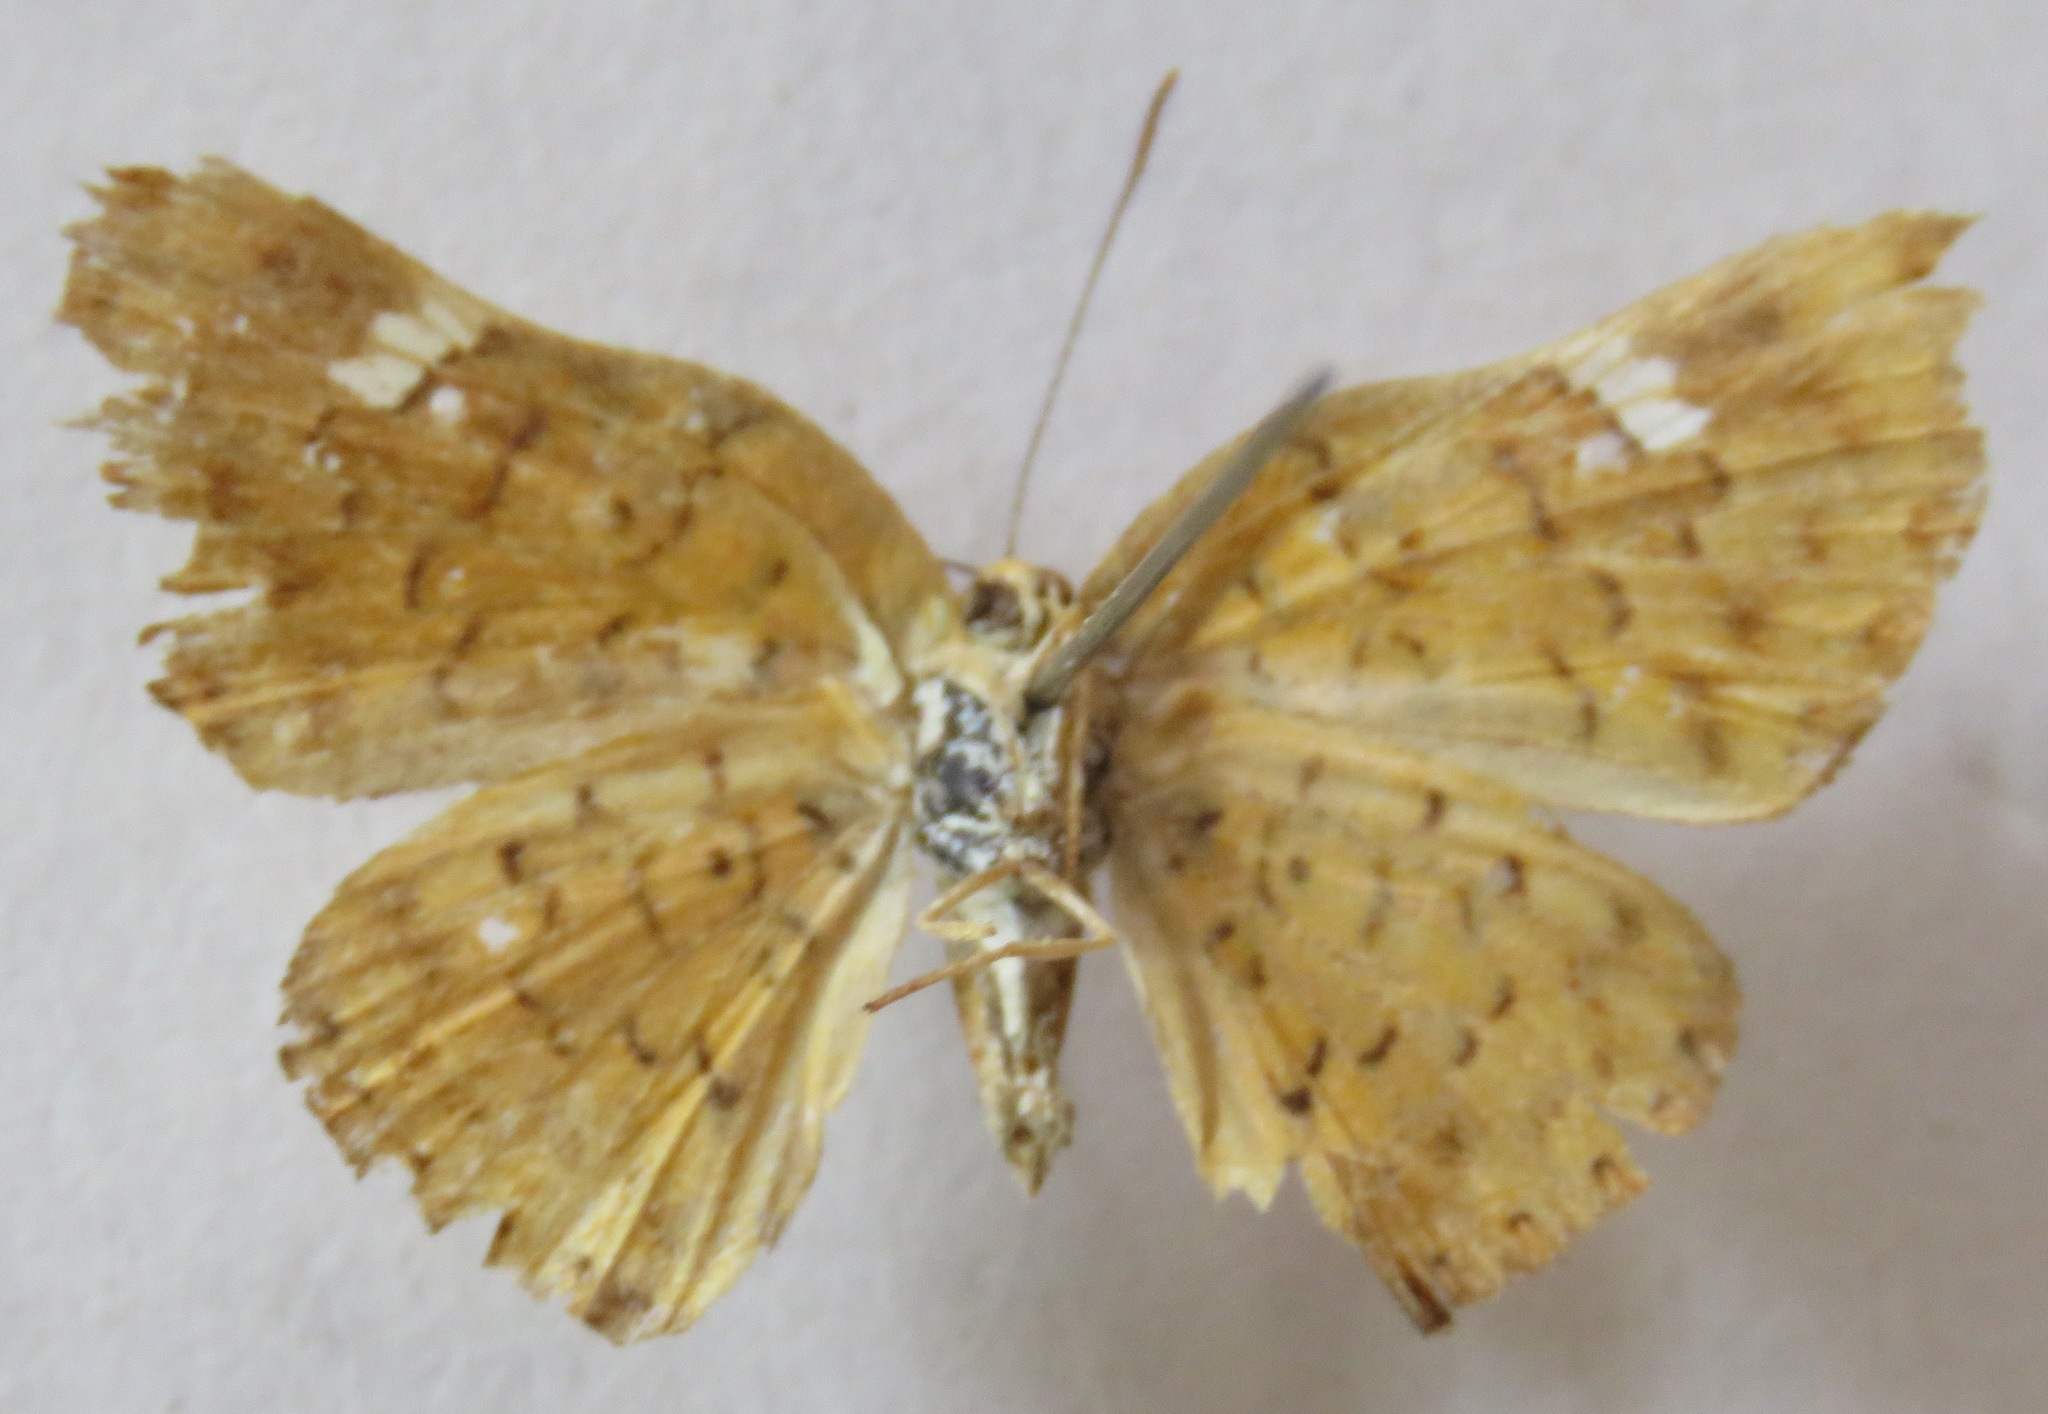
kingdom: Animalia
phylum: Arthropoda
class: Insecta
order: Lepidoptera
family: Riodinidae
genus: Curvie
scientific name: Curvie emesia
